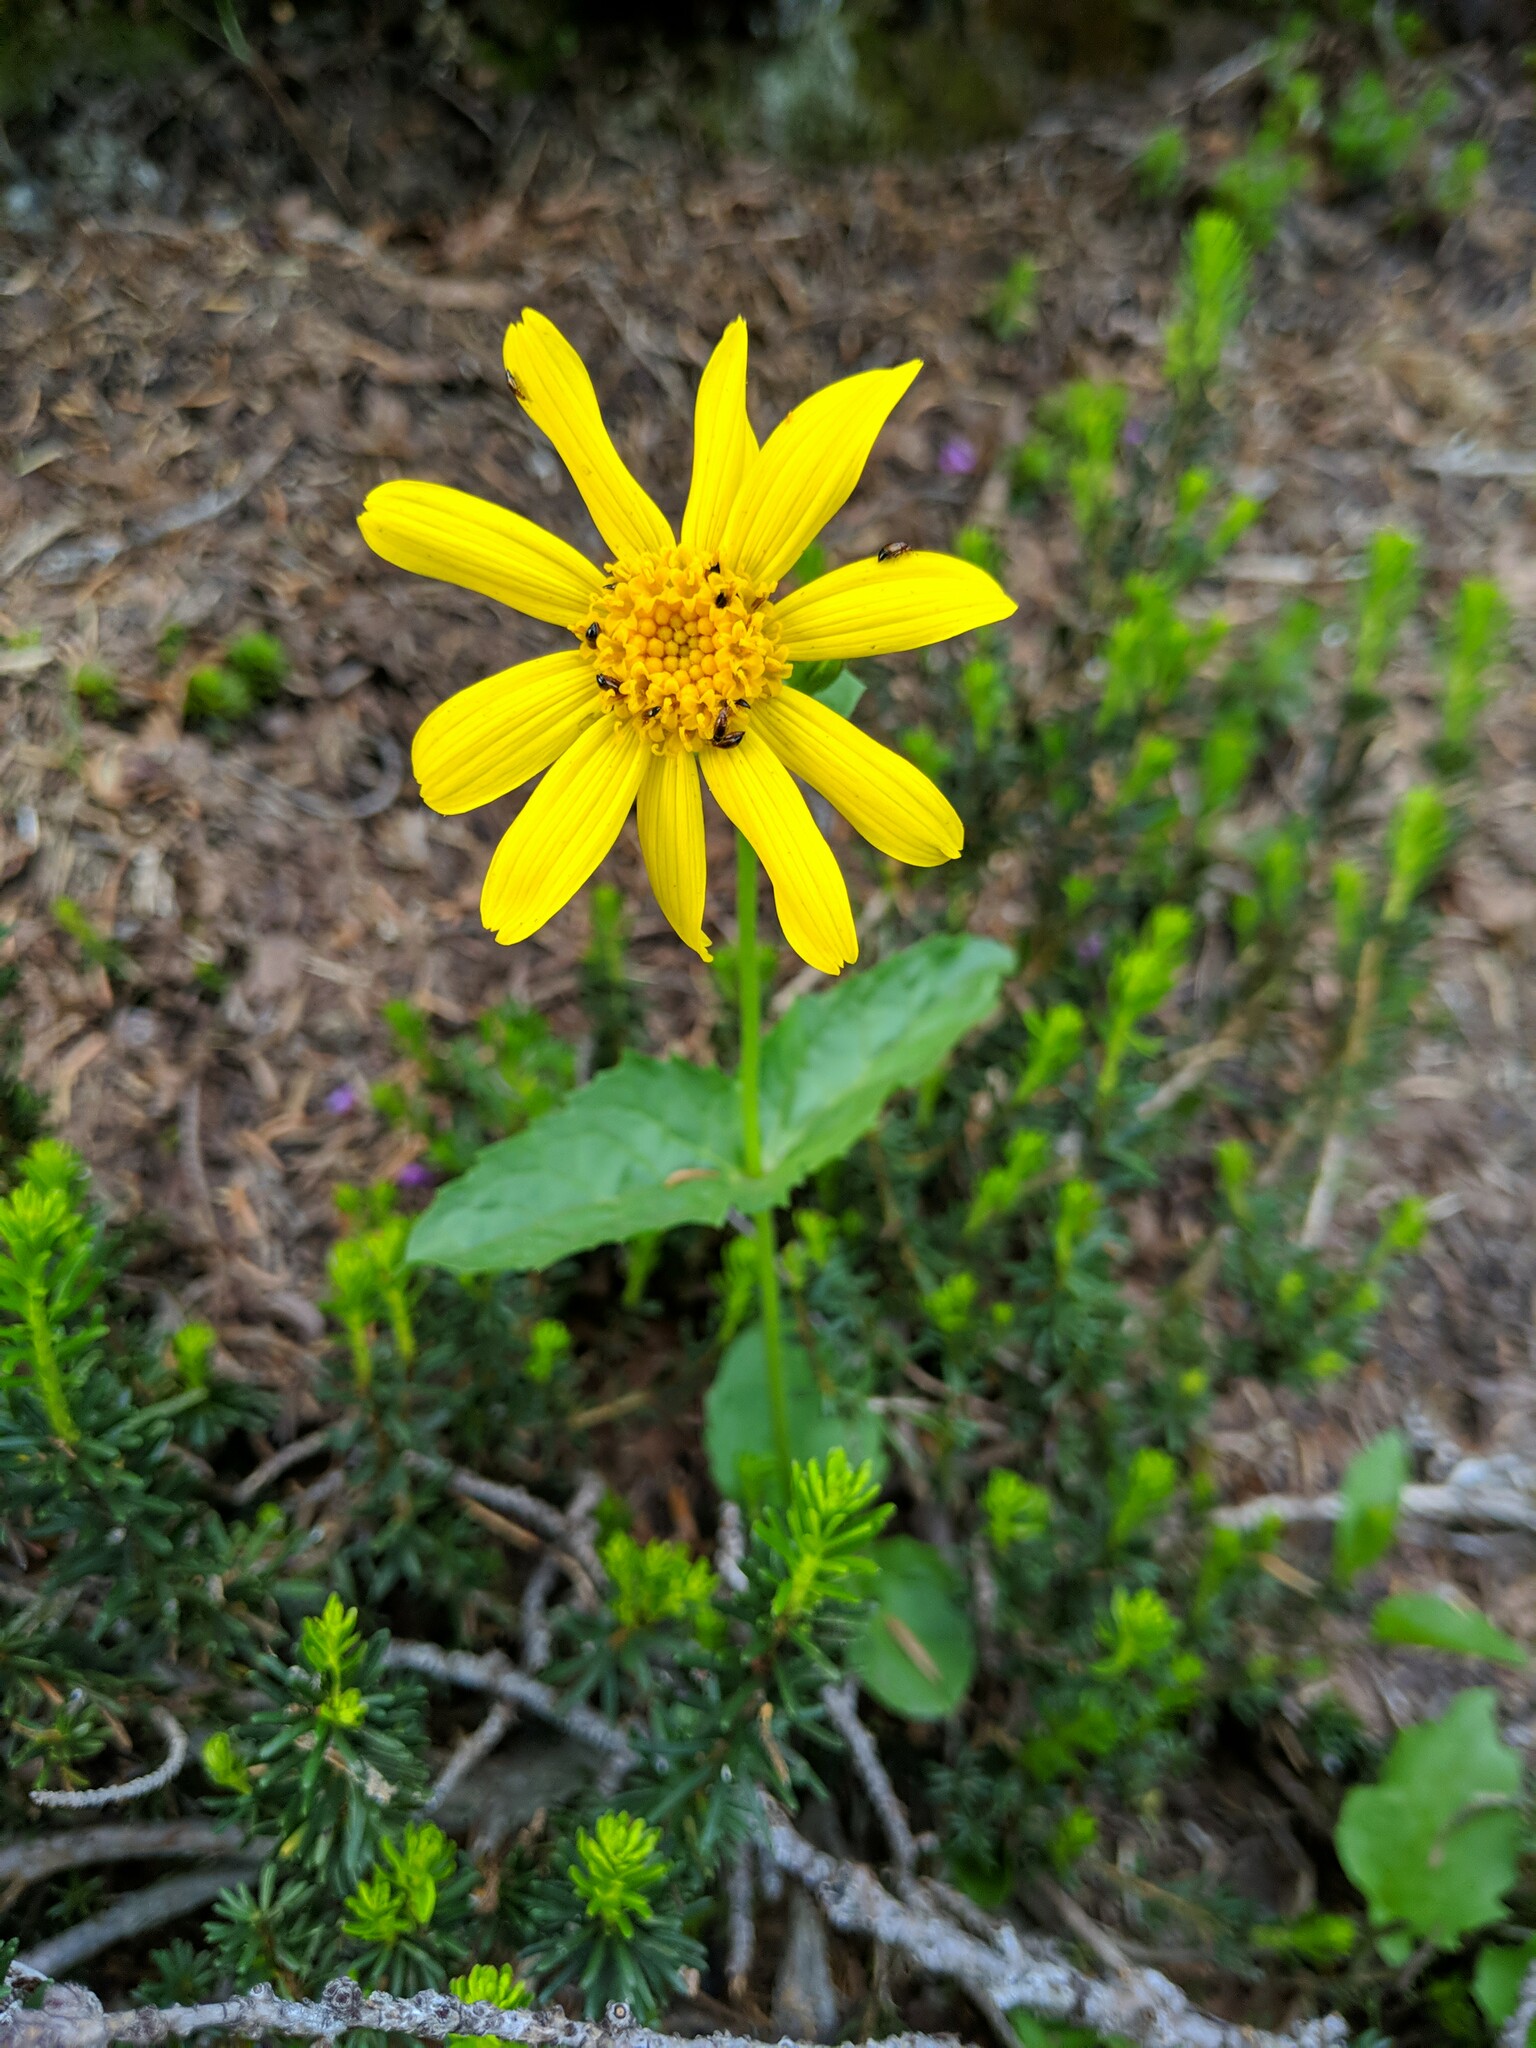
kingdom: Plantae
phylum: Tracheophyta
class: Magnoliopsida
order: Asterales
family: Asteraceae
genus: Arnica
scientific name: Arnica latifolia
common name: Arnica
